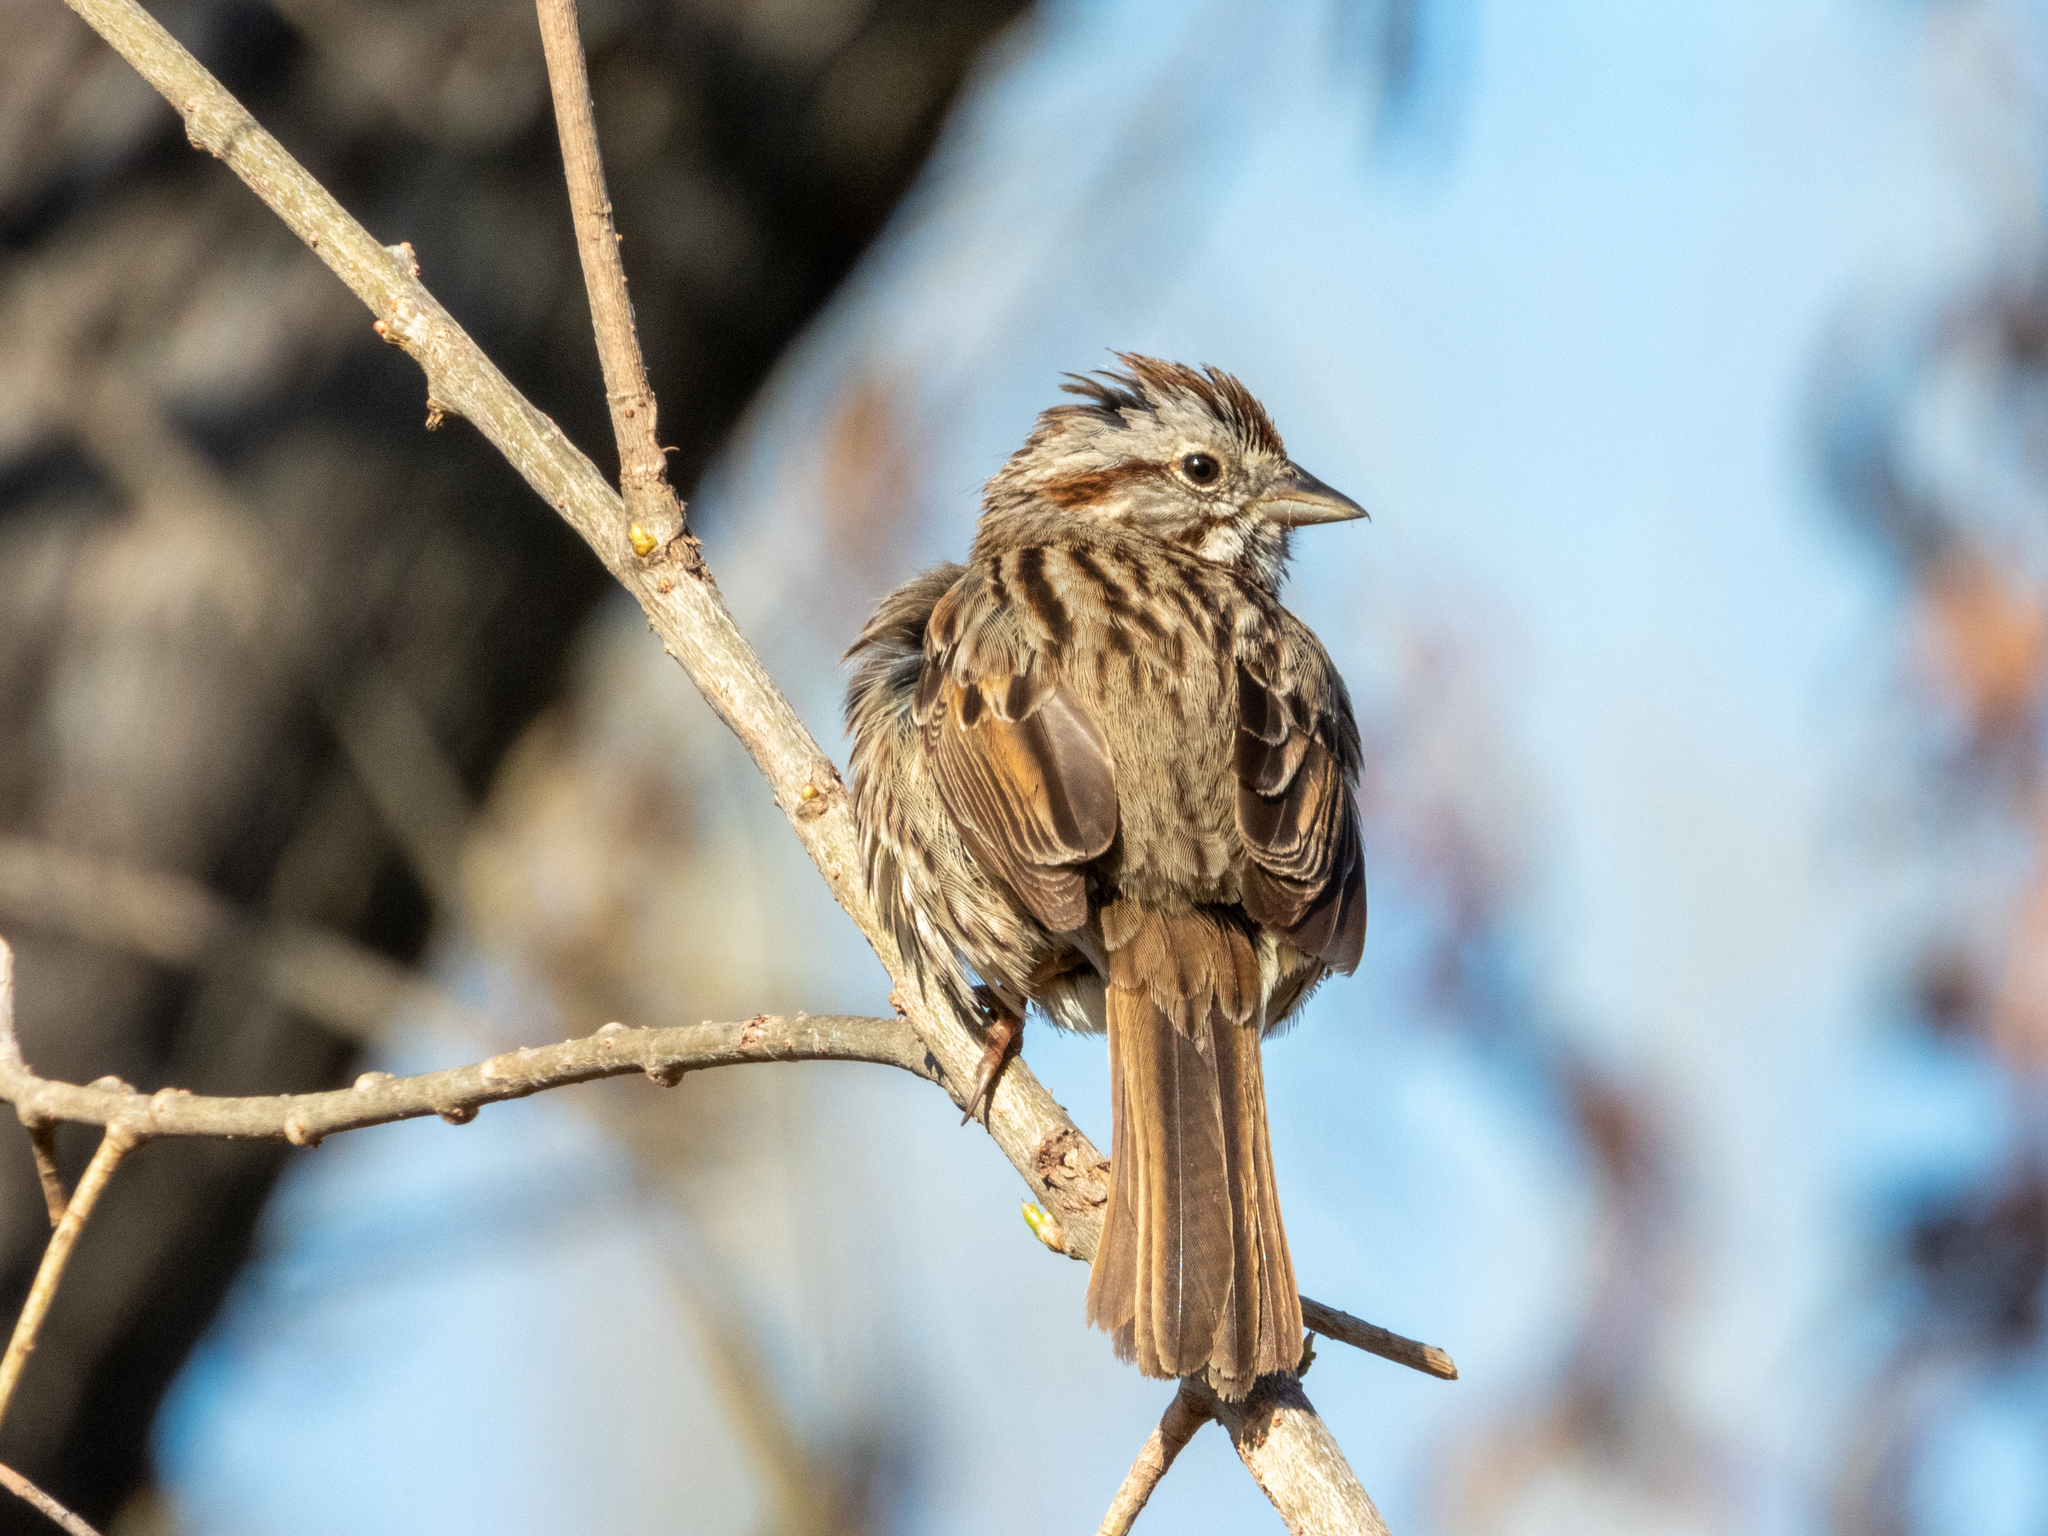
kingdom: Animalia
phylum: Chordata
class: Aves
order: Passeriformes
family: Passerellidae
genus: Melospiza
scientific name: Melospiza melodia
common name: Song sparrow
